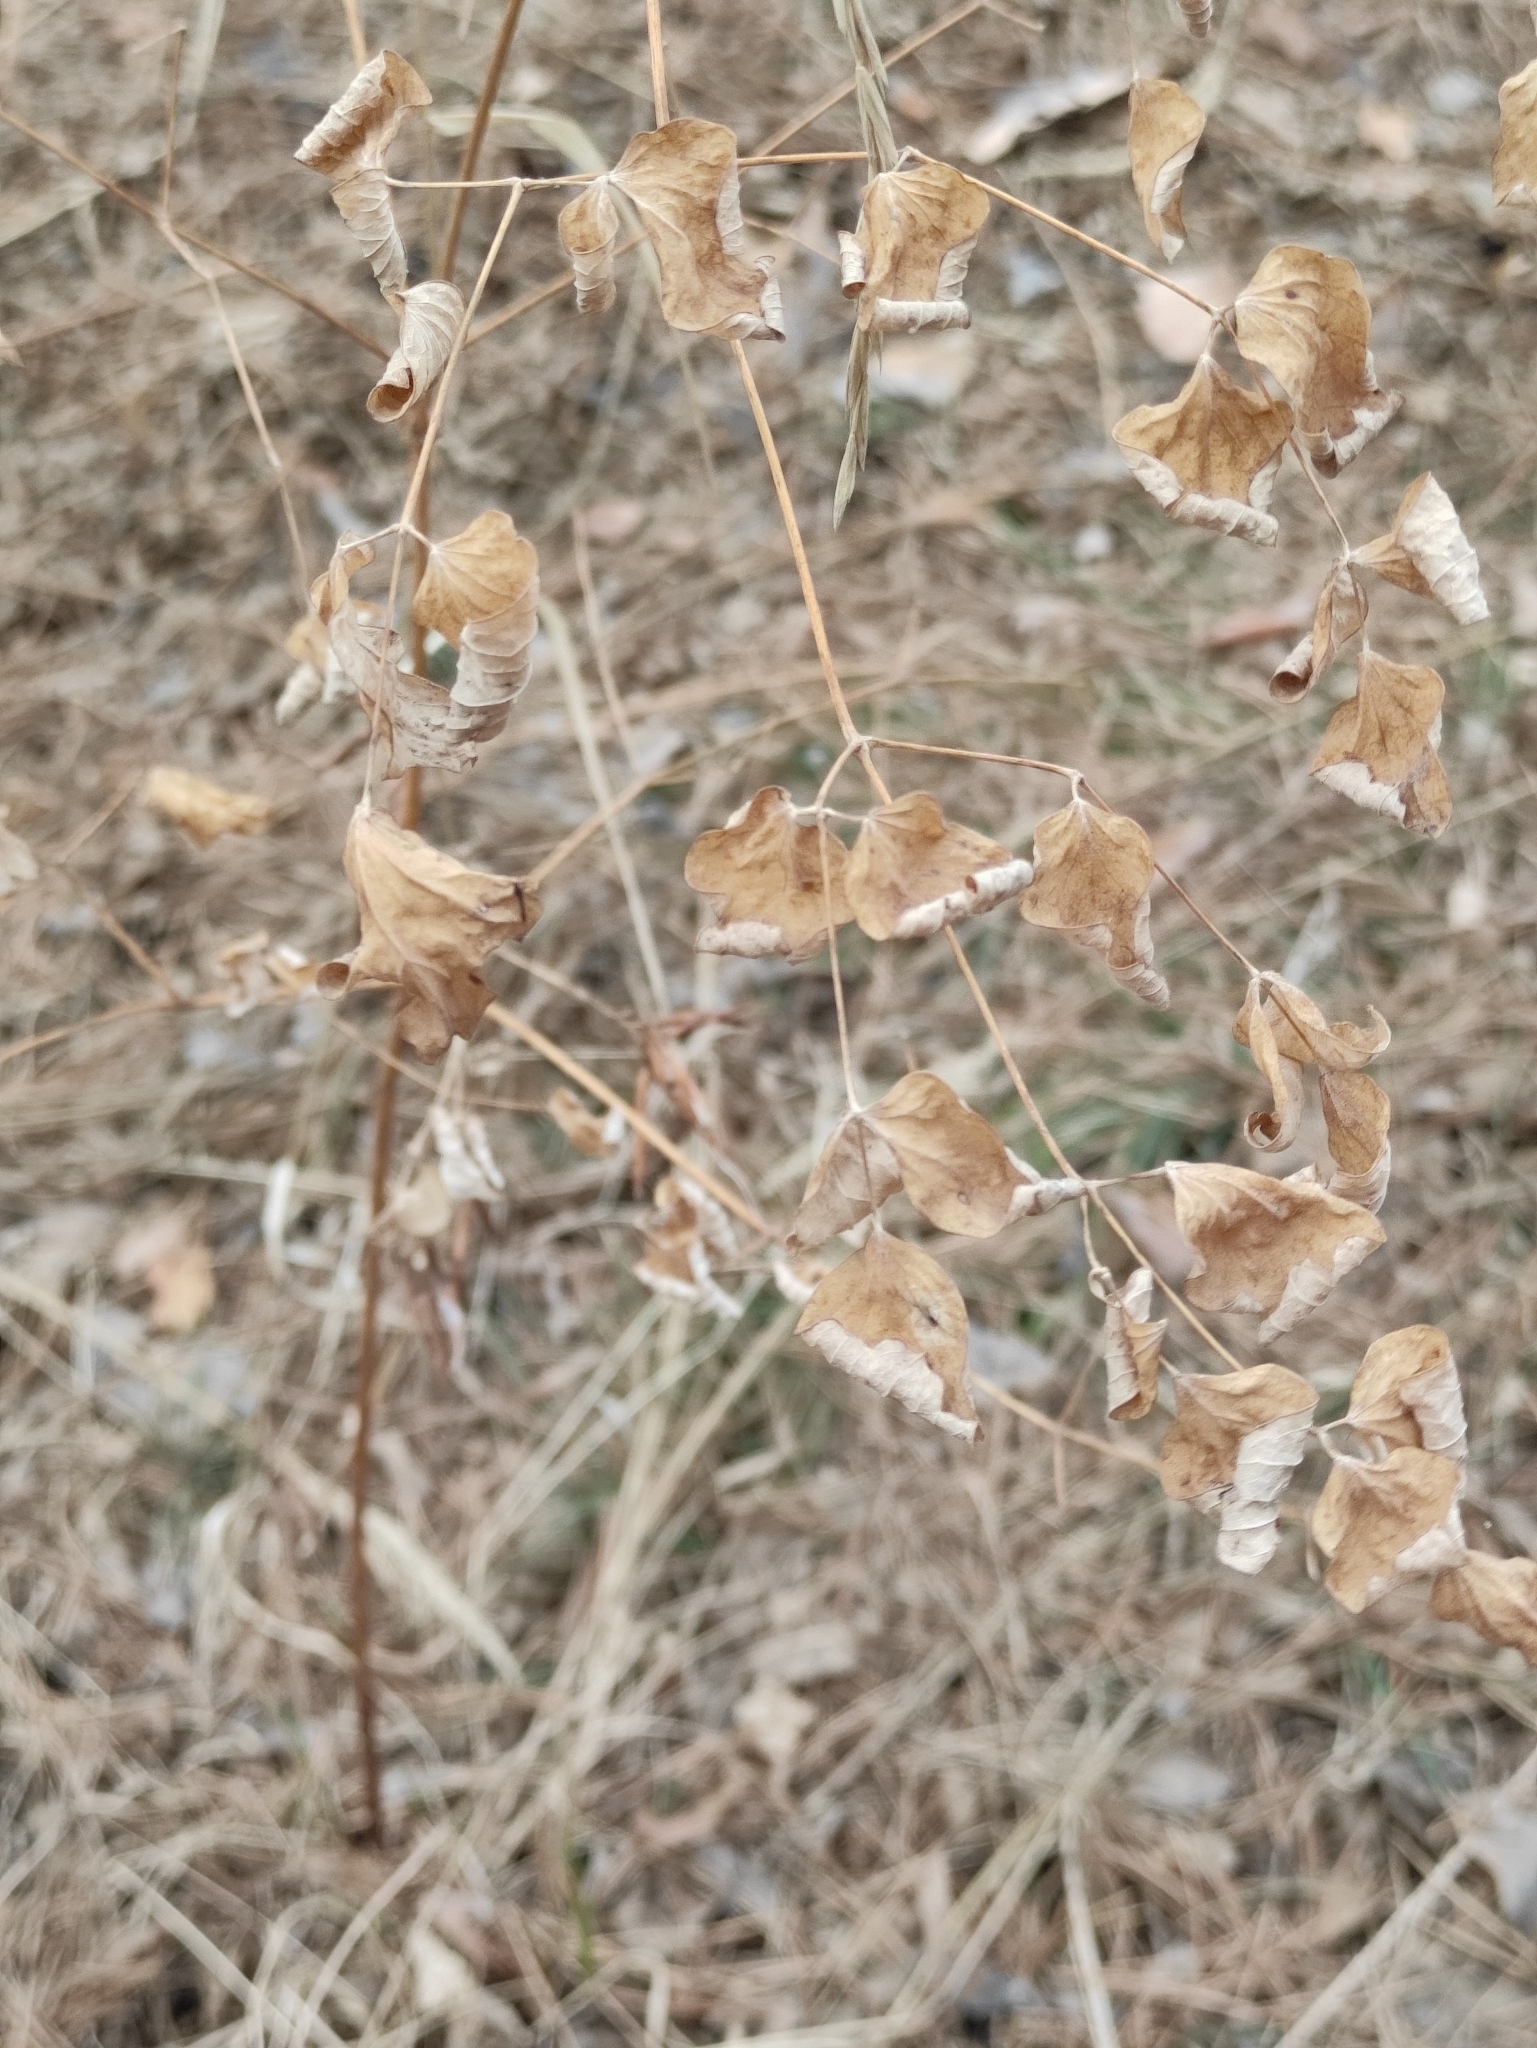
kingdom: Plantae
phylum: Tracheophyta
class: Magnoliopsida
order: Ranunculales
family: Ranunculaceae
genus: Thalictrum
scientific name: Thalictrum minus
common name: Lesser meadow-rue
